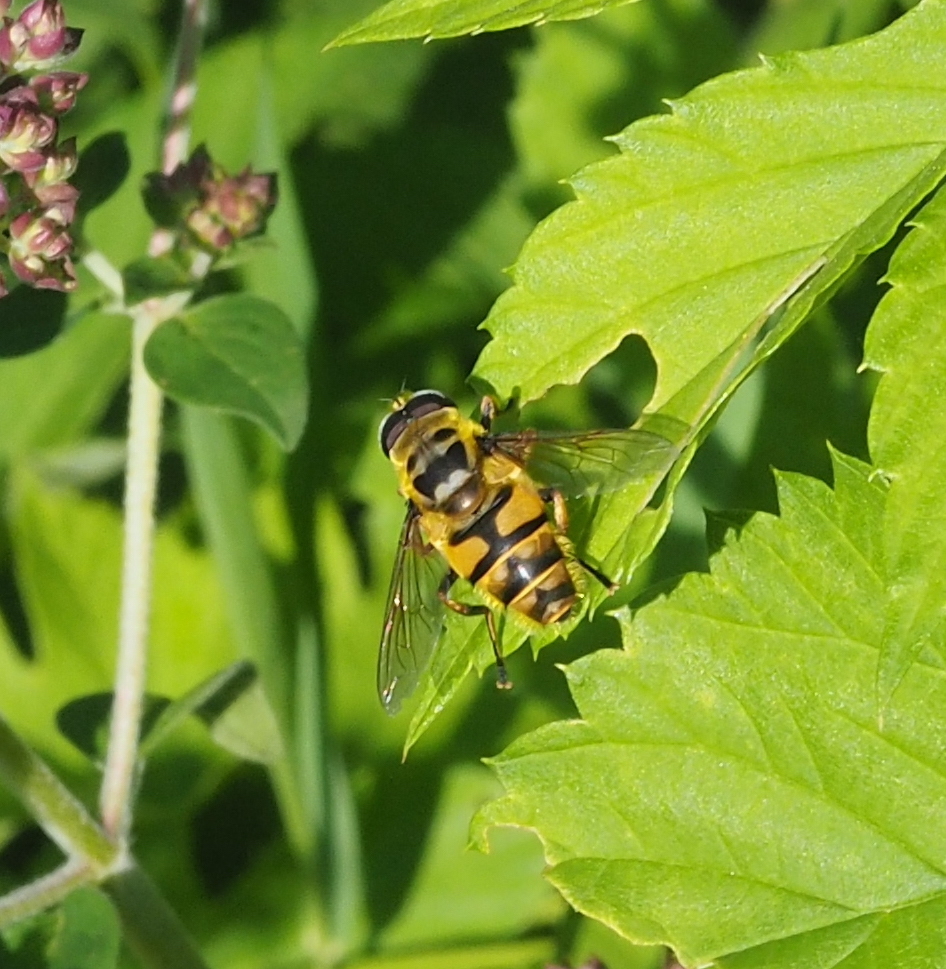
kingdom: Animalia
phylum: Arthropoda
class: Insecta
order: Diptera
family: Syrphidae
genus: Myathropa
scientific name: Myathropa florea
